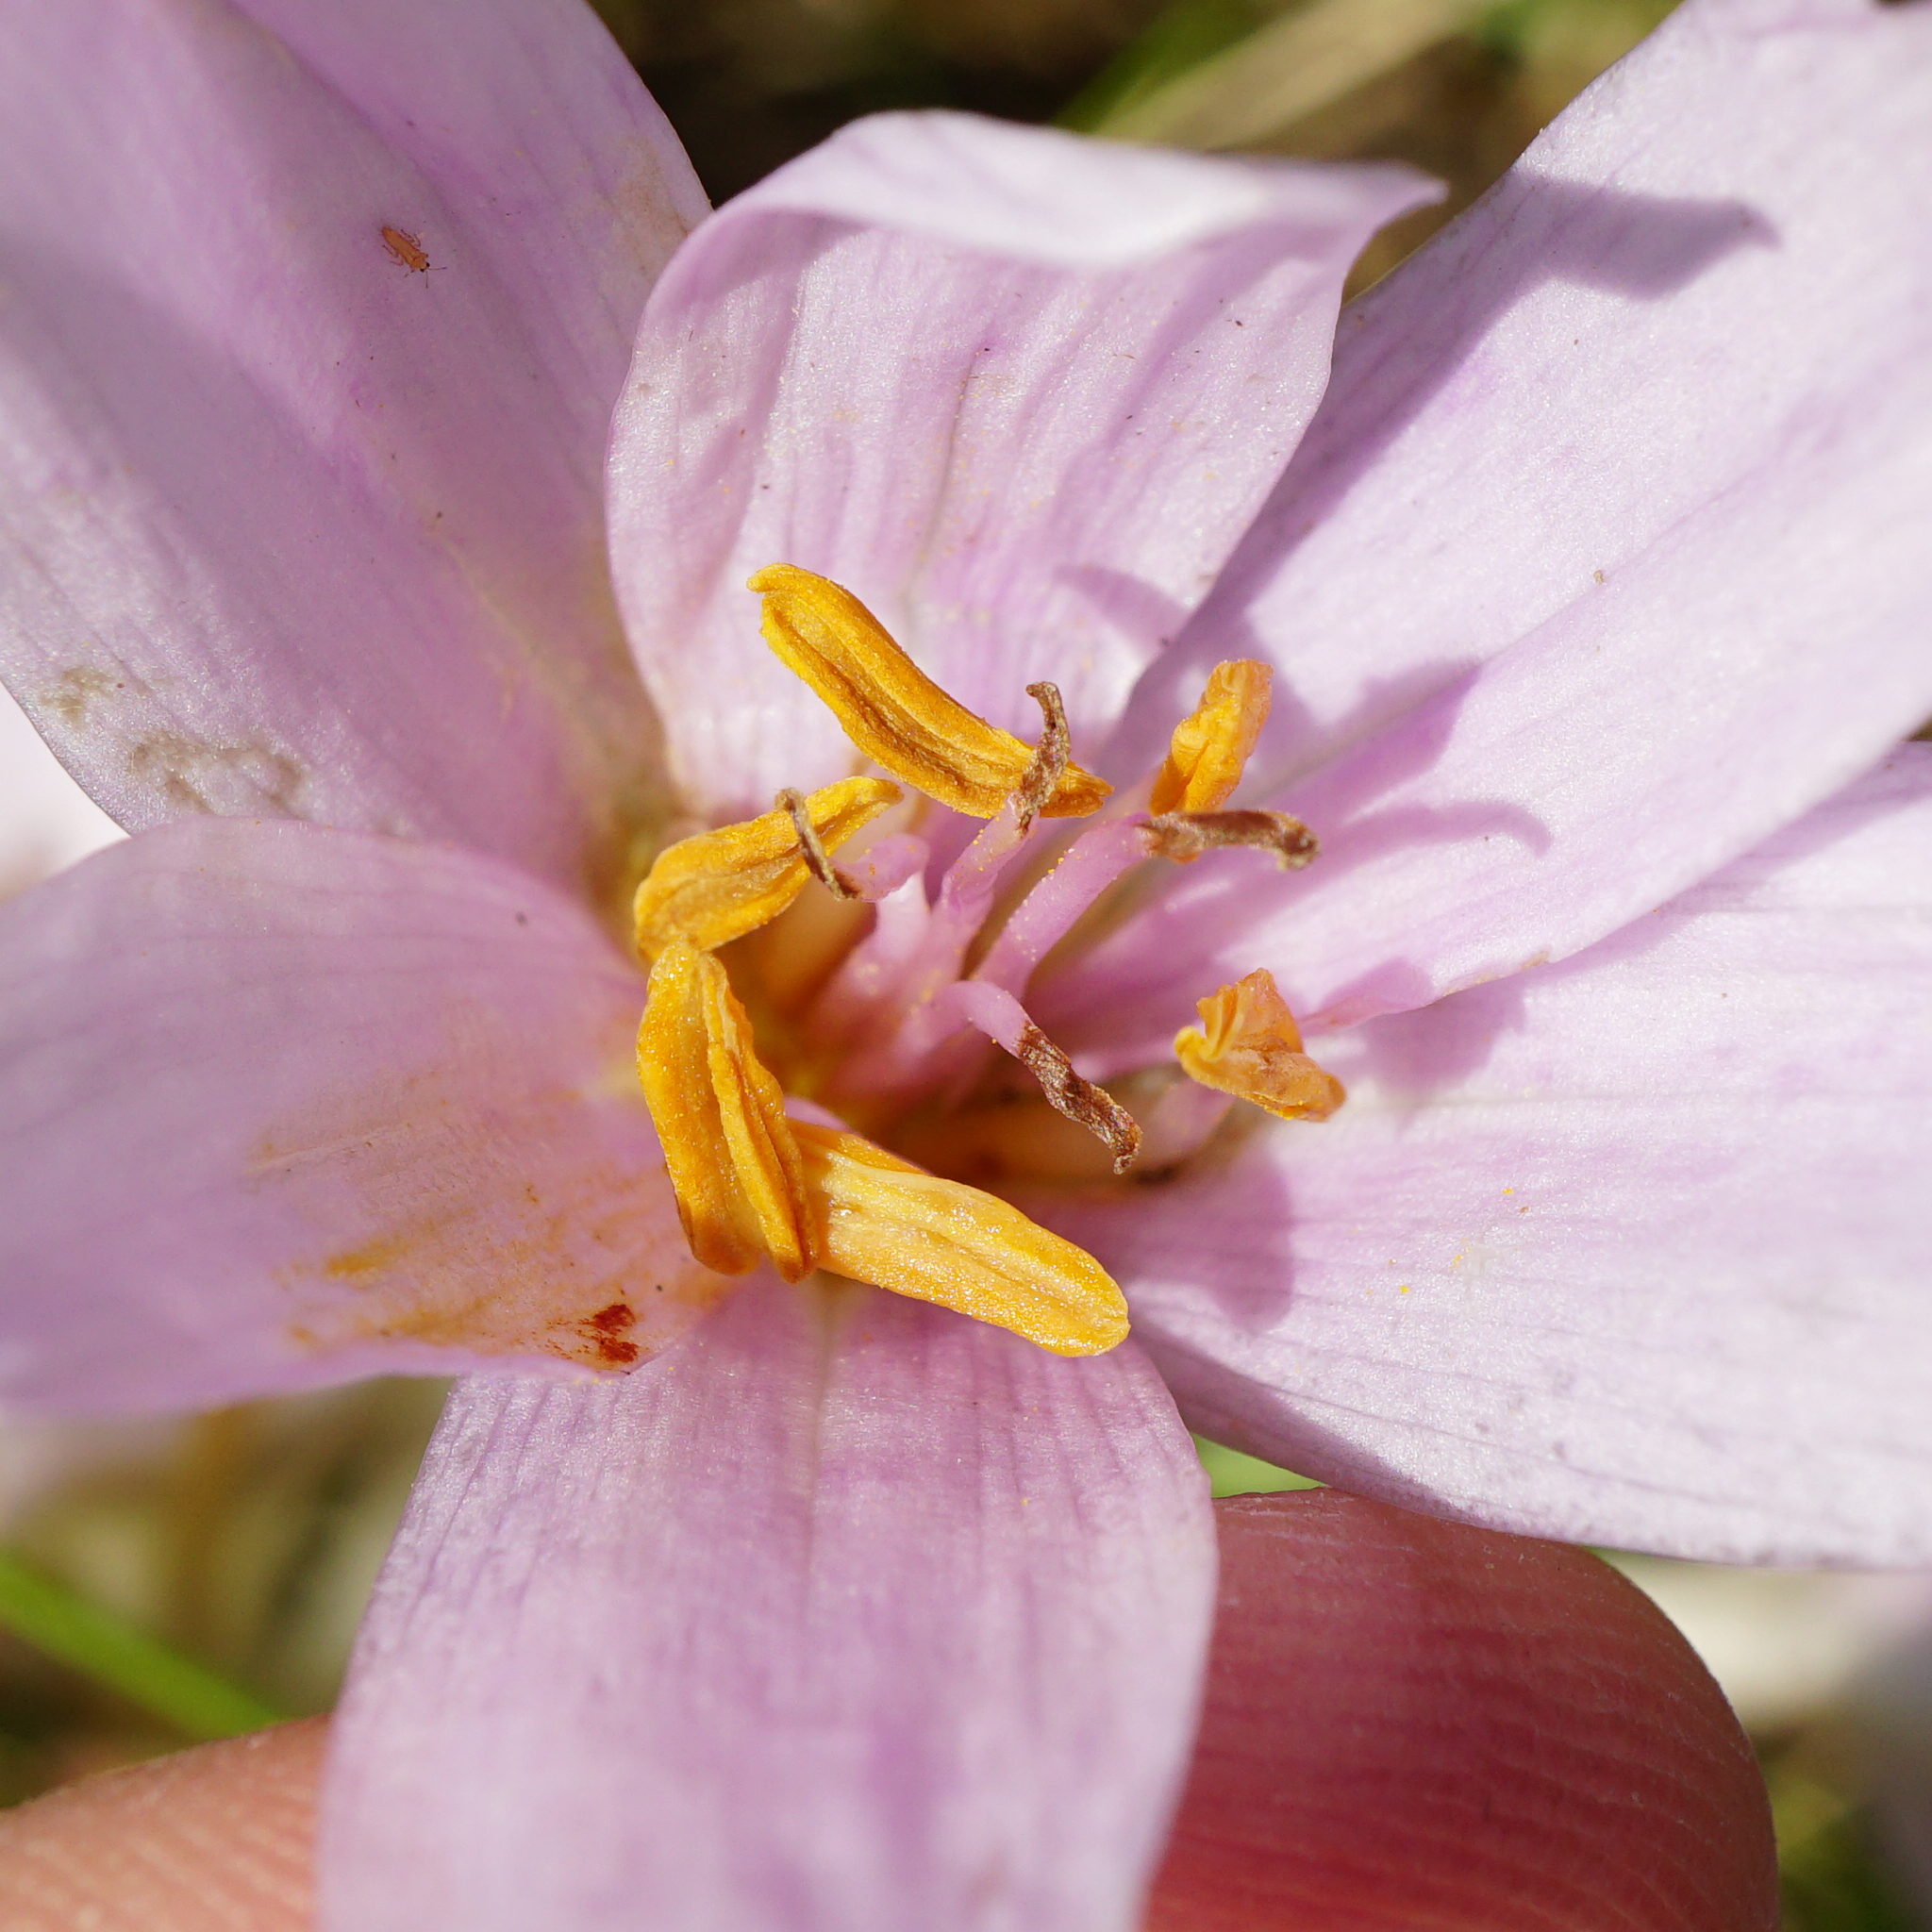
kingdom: Plantae
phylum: Tracheophyta
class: Liliopsida
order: Liliales
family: Colchicaceae
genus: Colchicum
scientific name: Colchicum autumnale
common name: Autumn crocus
